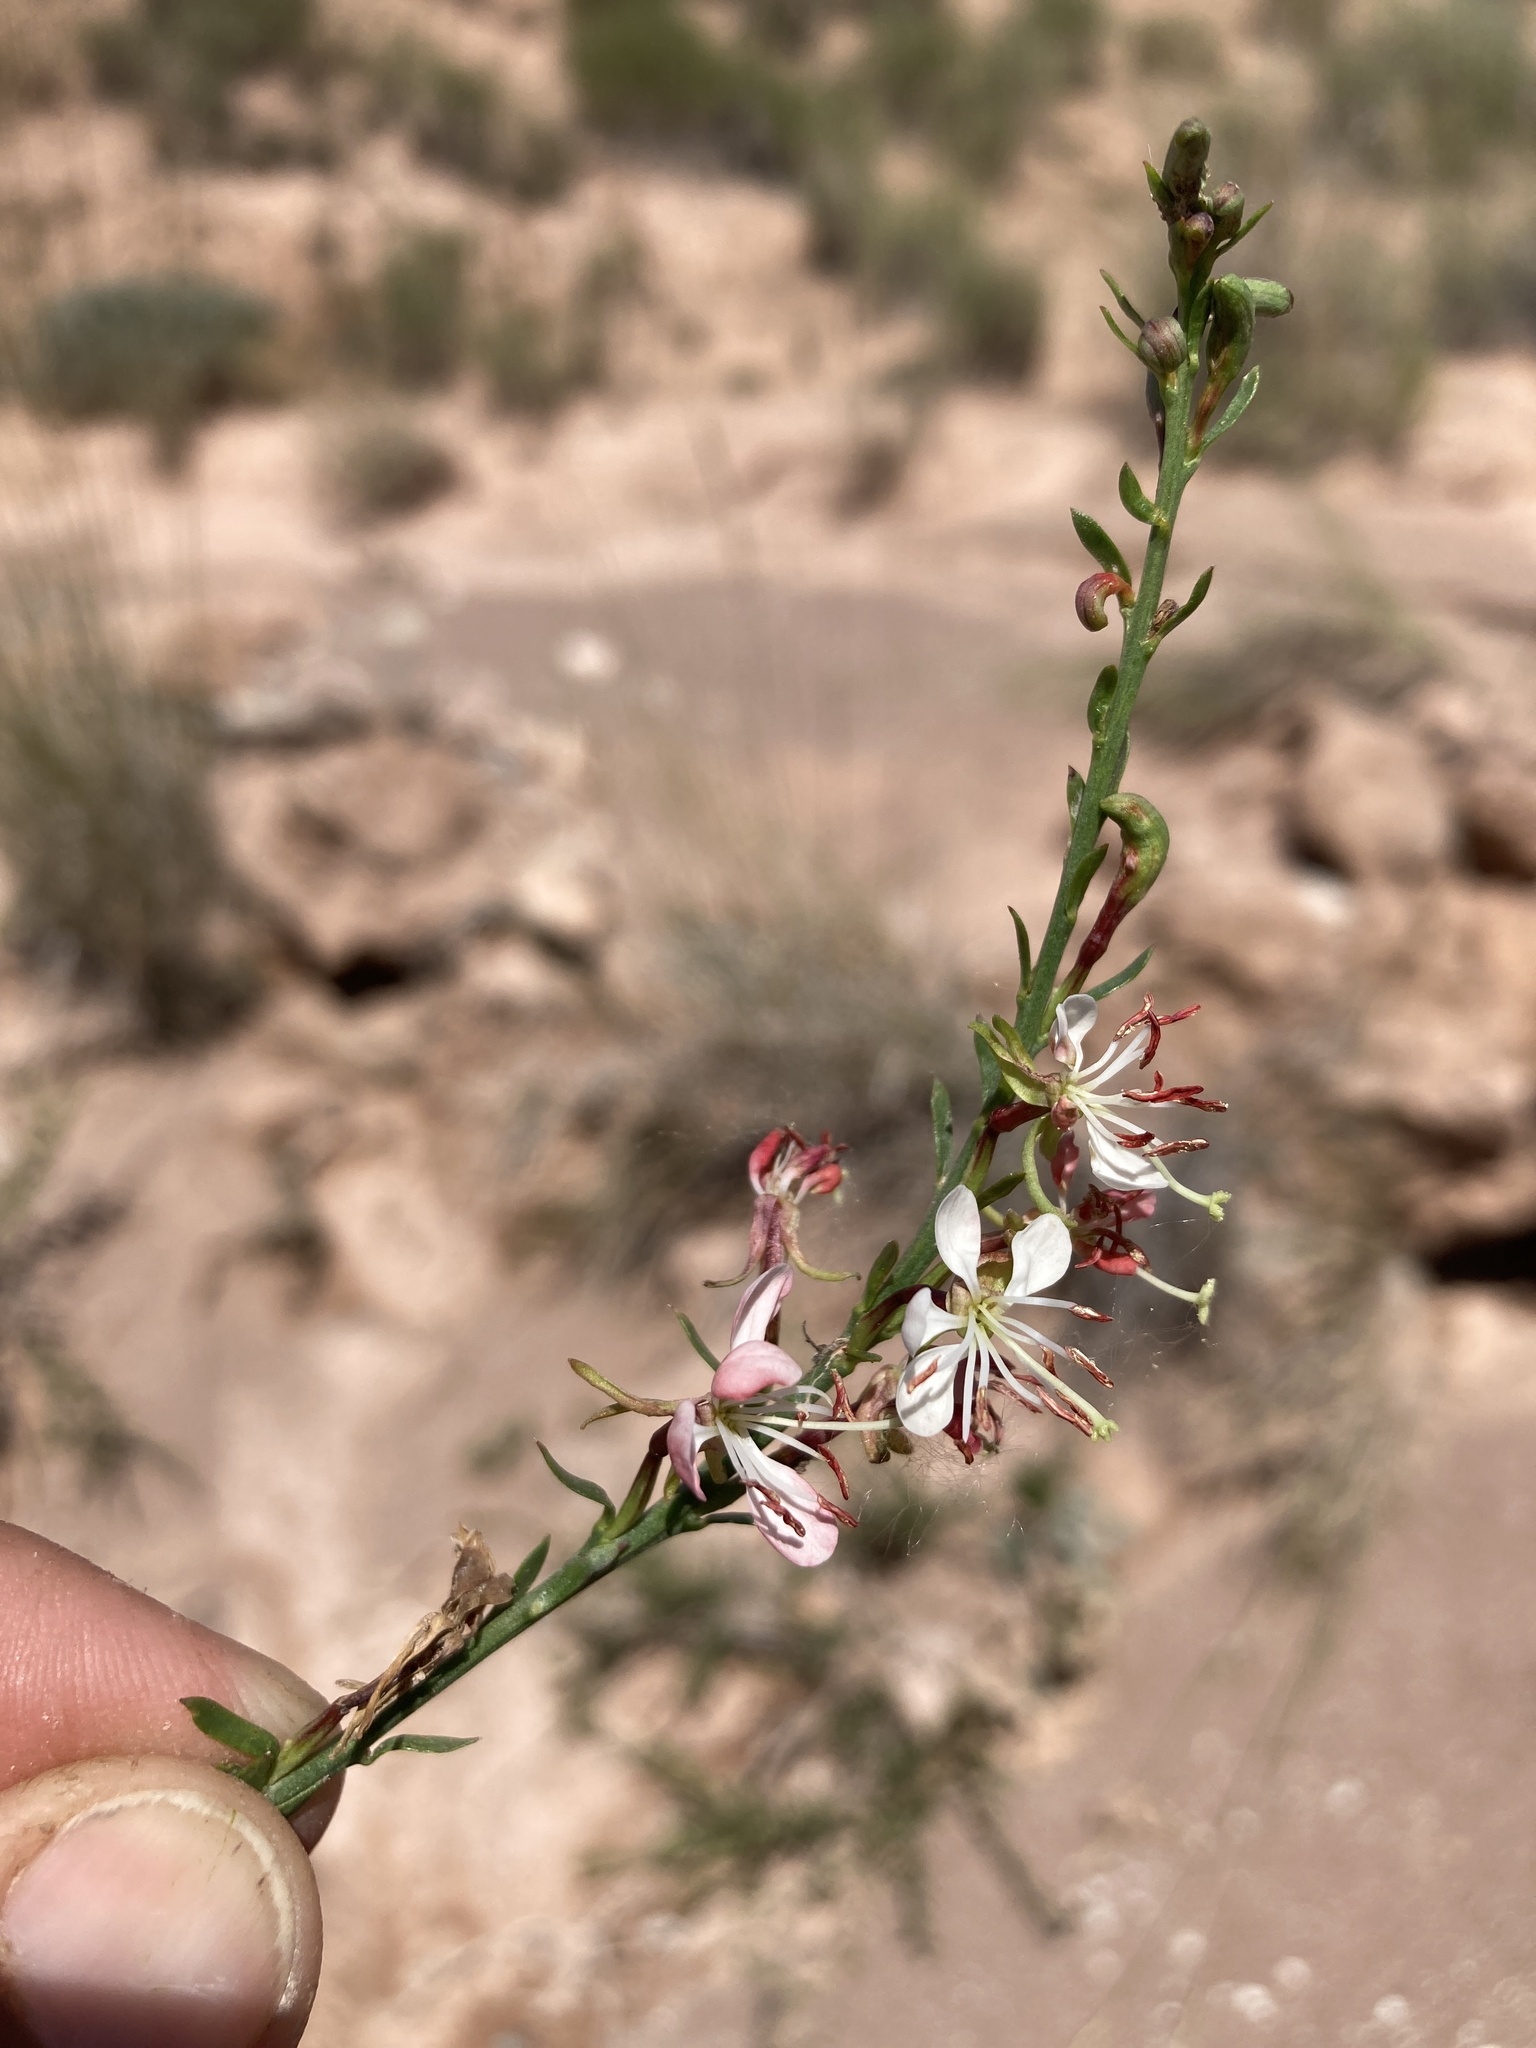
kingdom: Plantae
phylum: Tracheophyta
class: Magnoliopsida
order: Myrtales
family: Onagraceae
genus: Oenothera
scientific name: Oenothera suffrutescens
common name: Scarlet beeblossom
